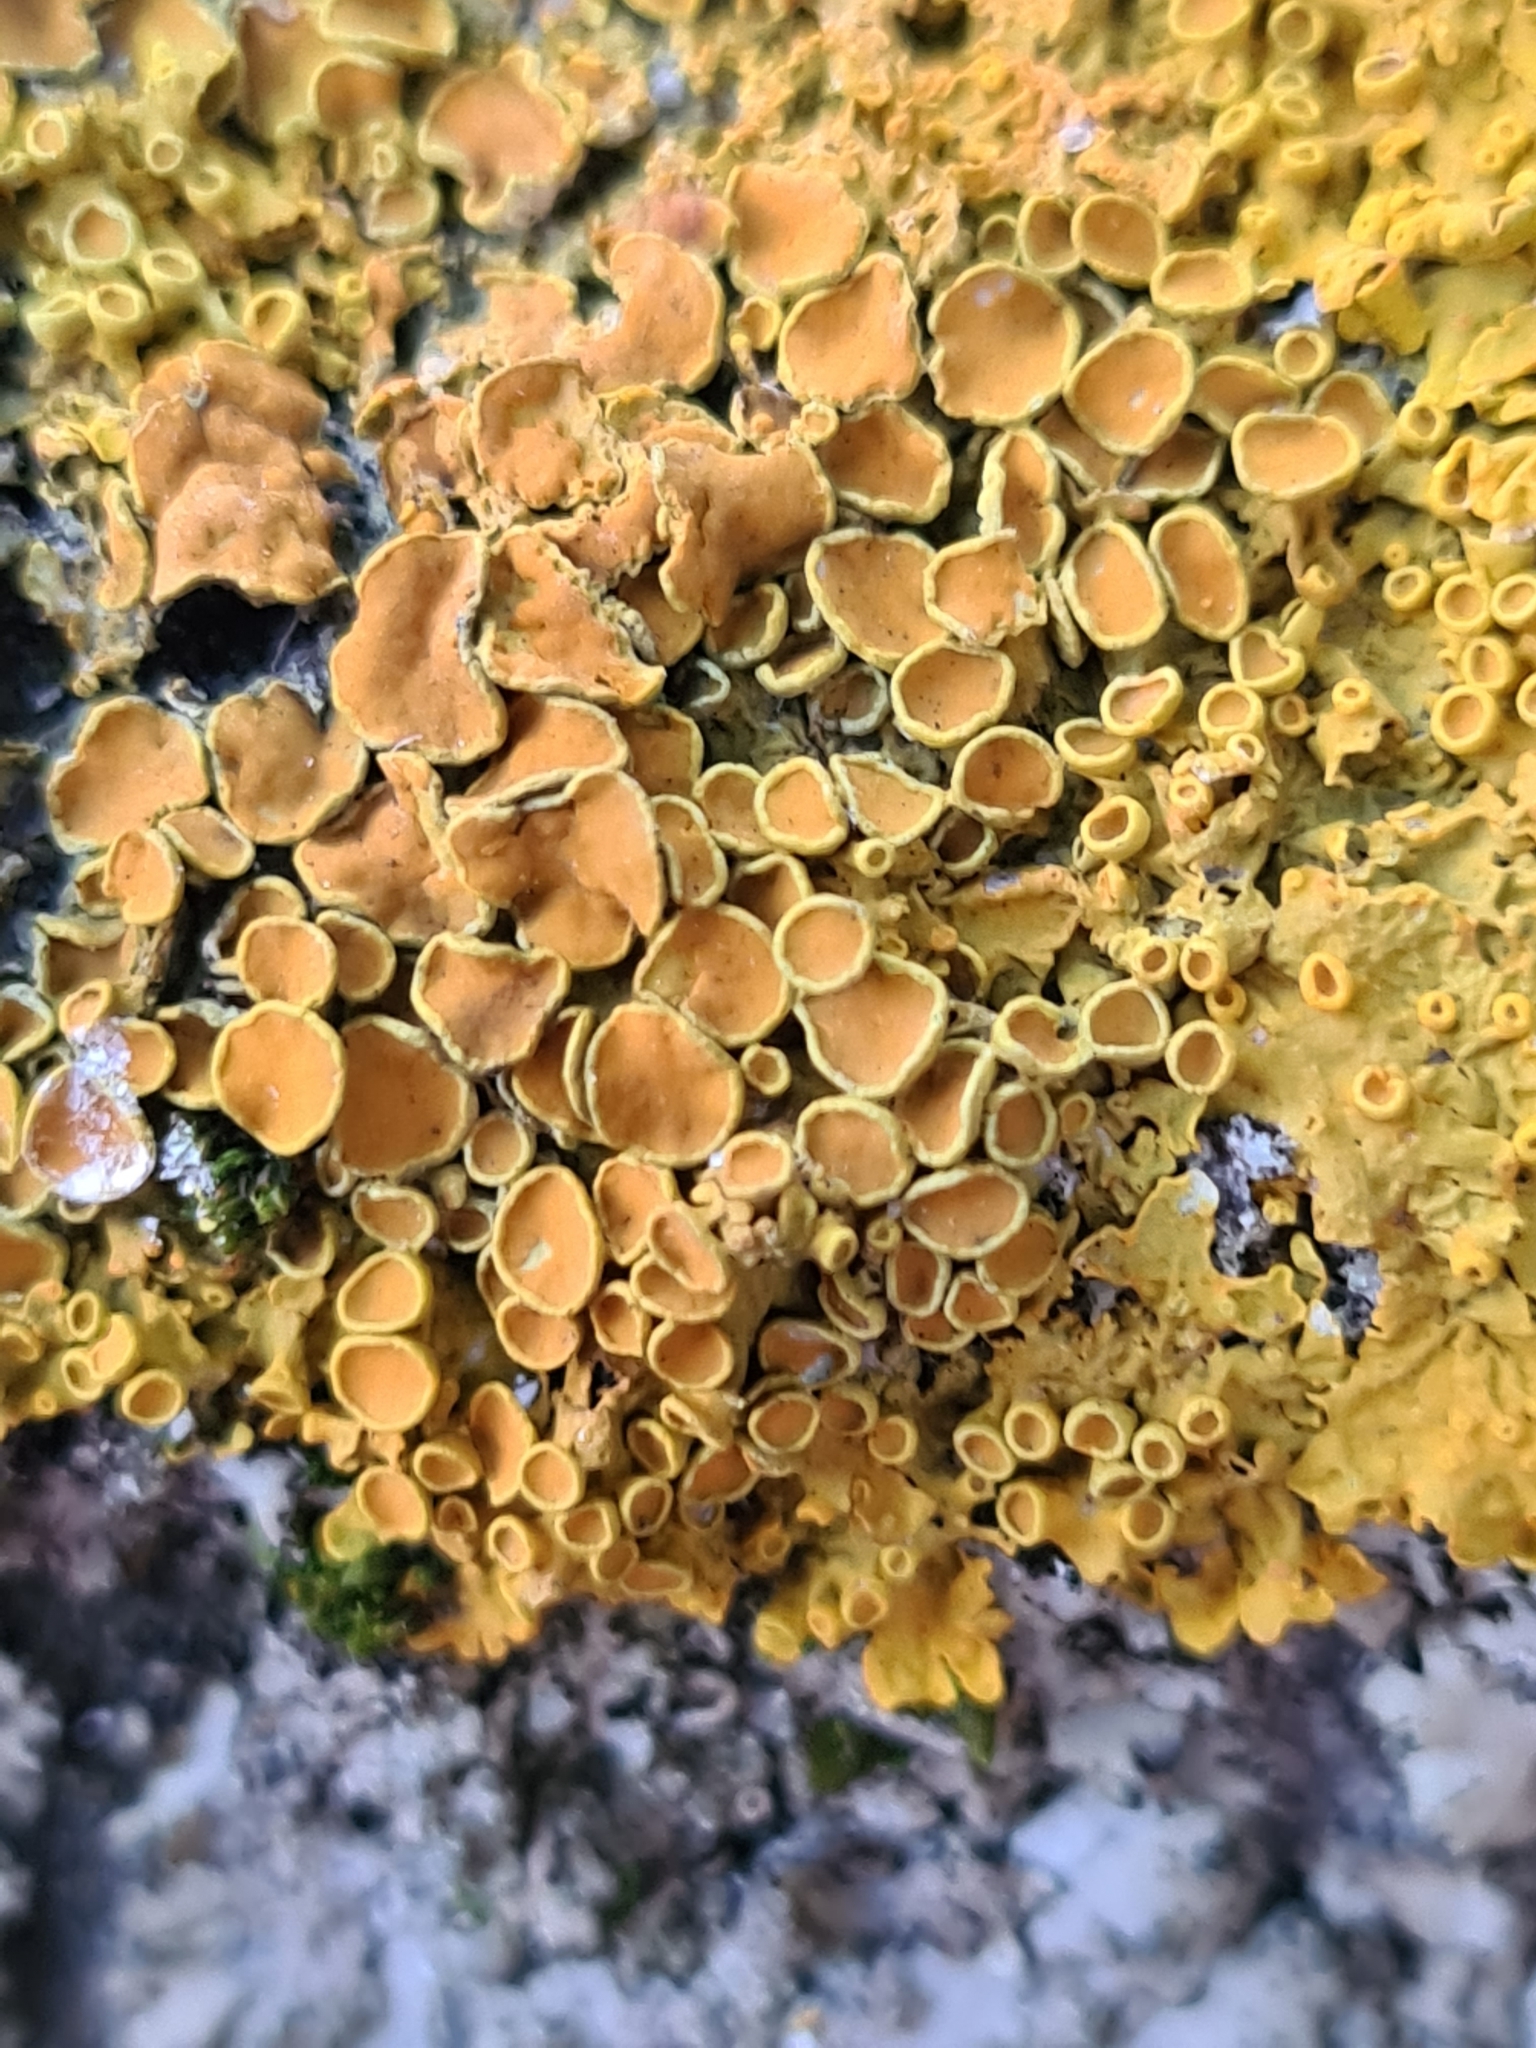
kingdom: Fungi
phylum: Ascomycota
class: Lecanoromycetes
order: Teloschistales
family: Teloschistaceae
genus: Xanthoria
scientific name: Xanthoria parietina
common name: Common orange lichen
